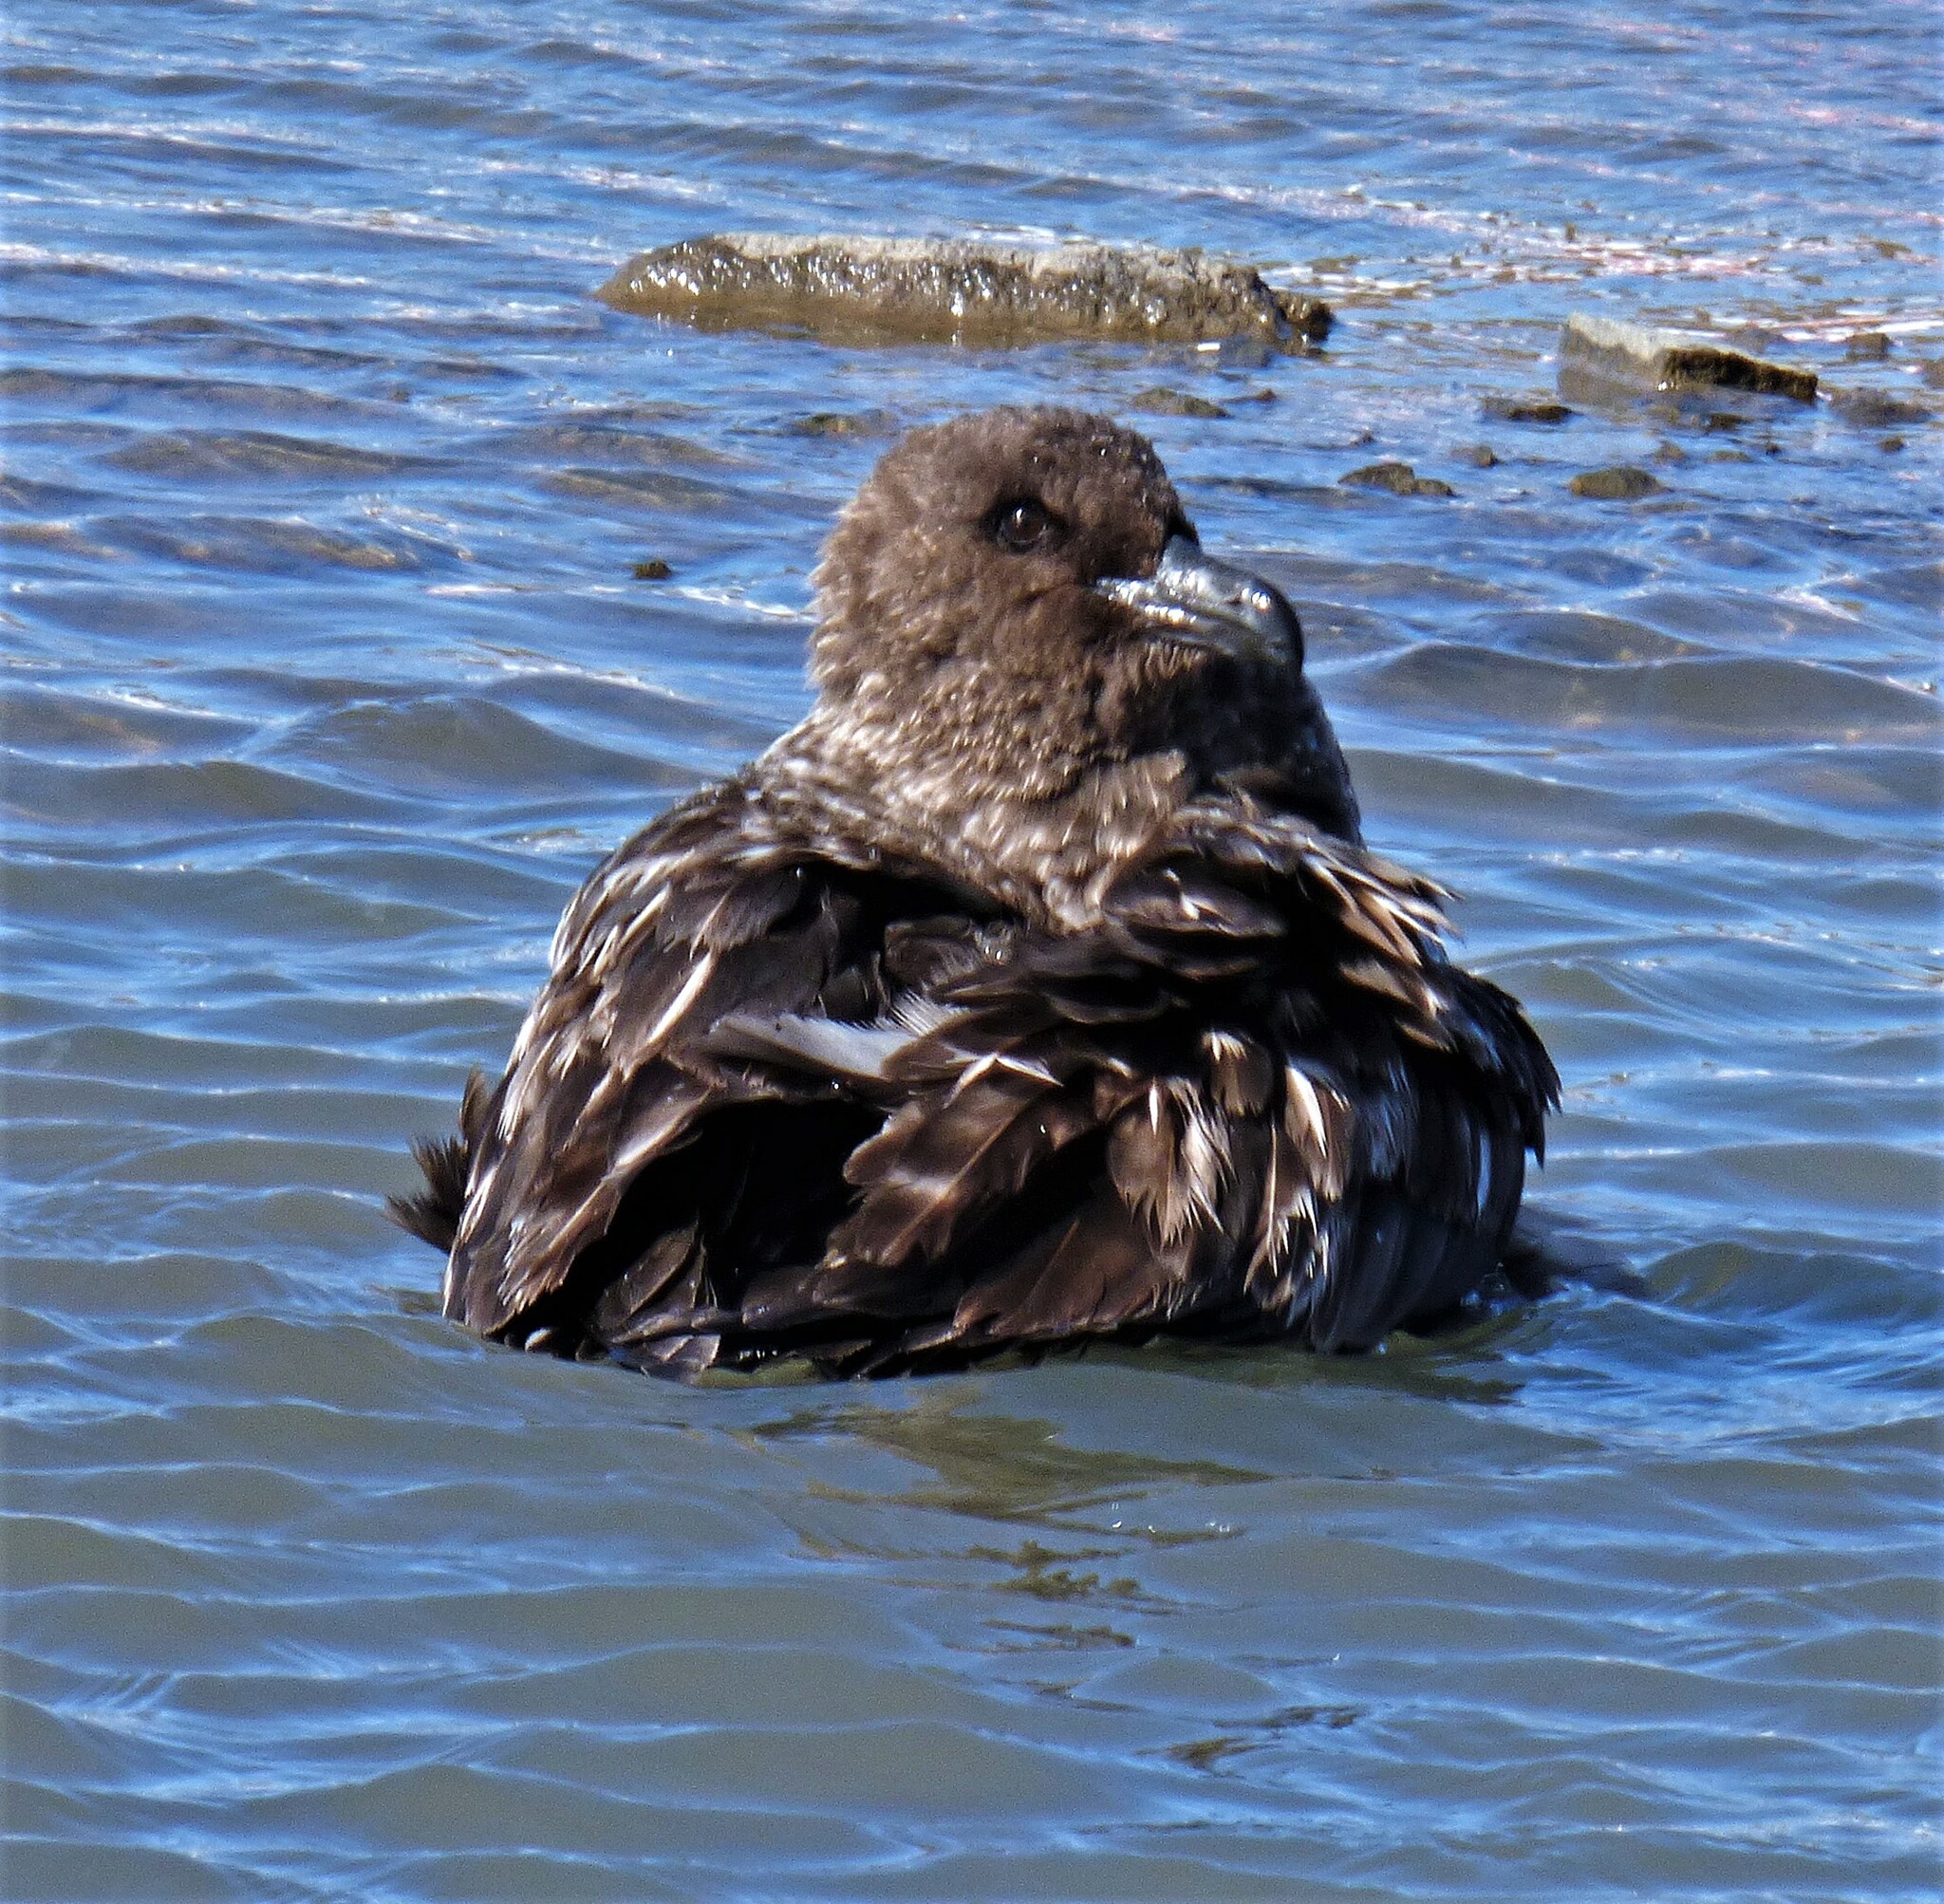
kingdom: Animalia
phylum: Chordata
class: Aves
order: Charadriiformes
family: Stercorariidae
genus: Stercorarius
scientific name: Stercorarius antarcticus
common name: Brown skua
